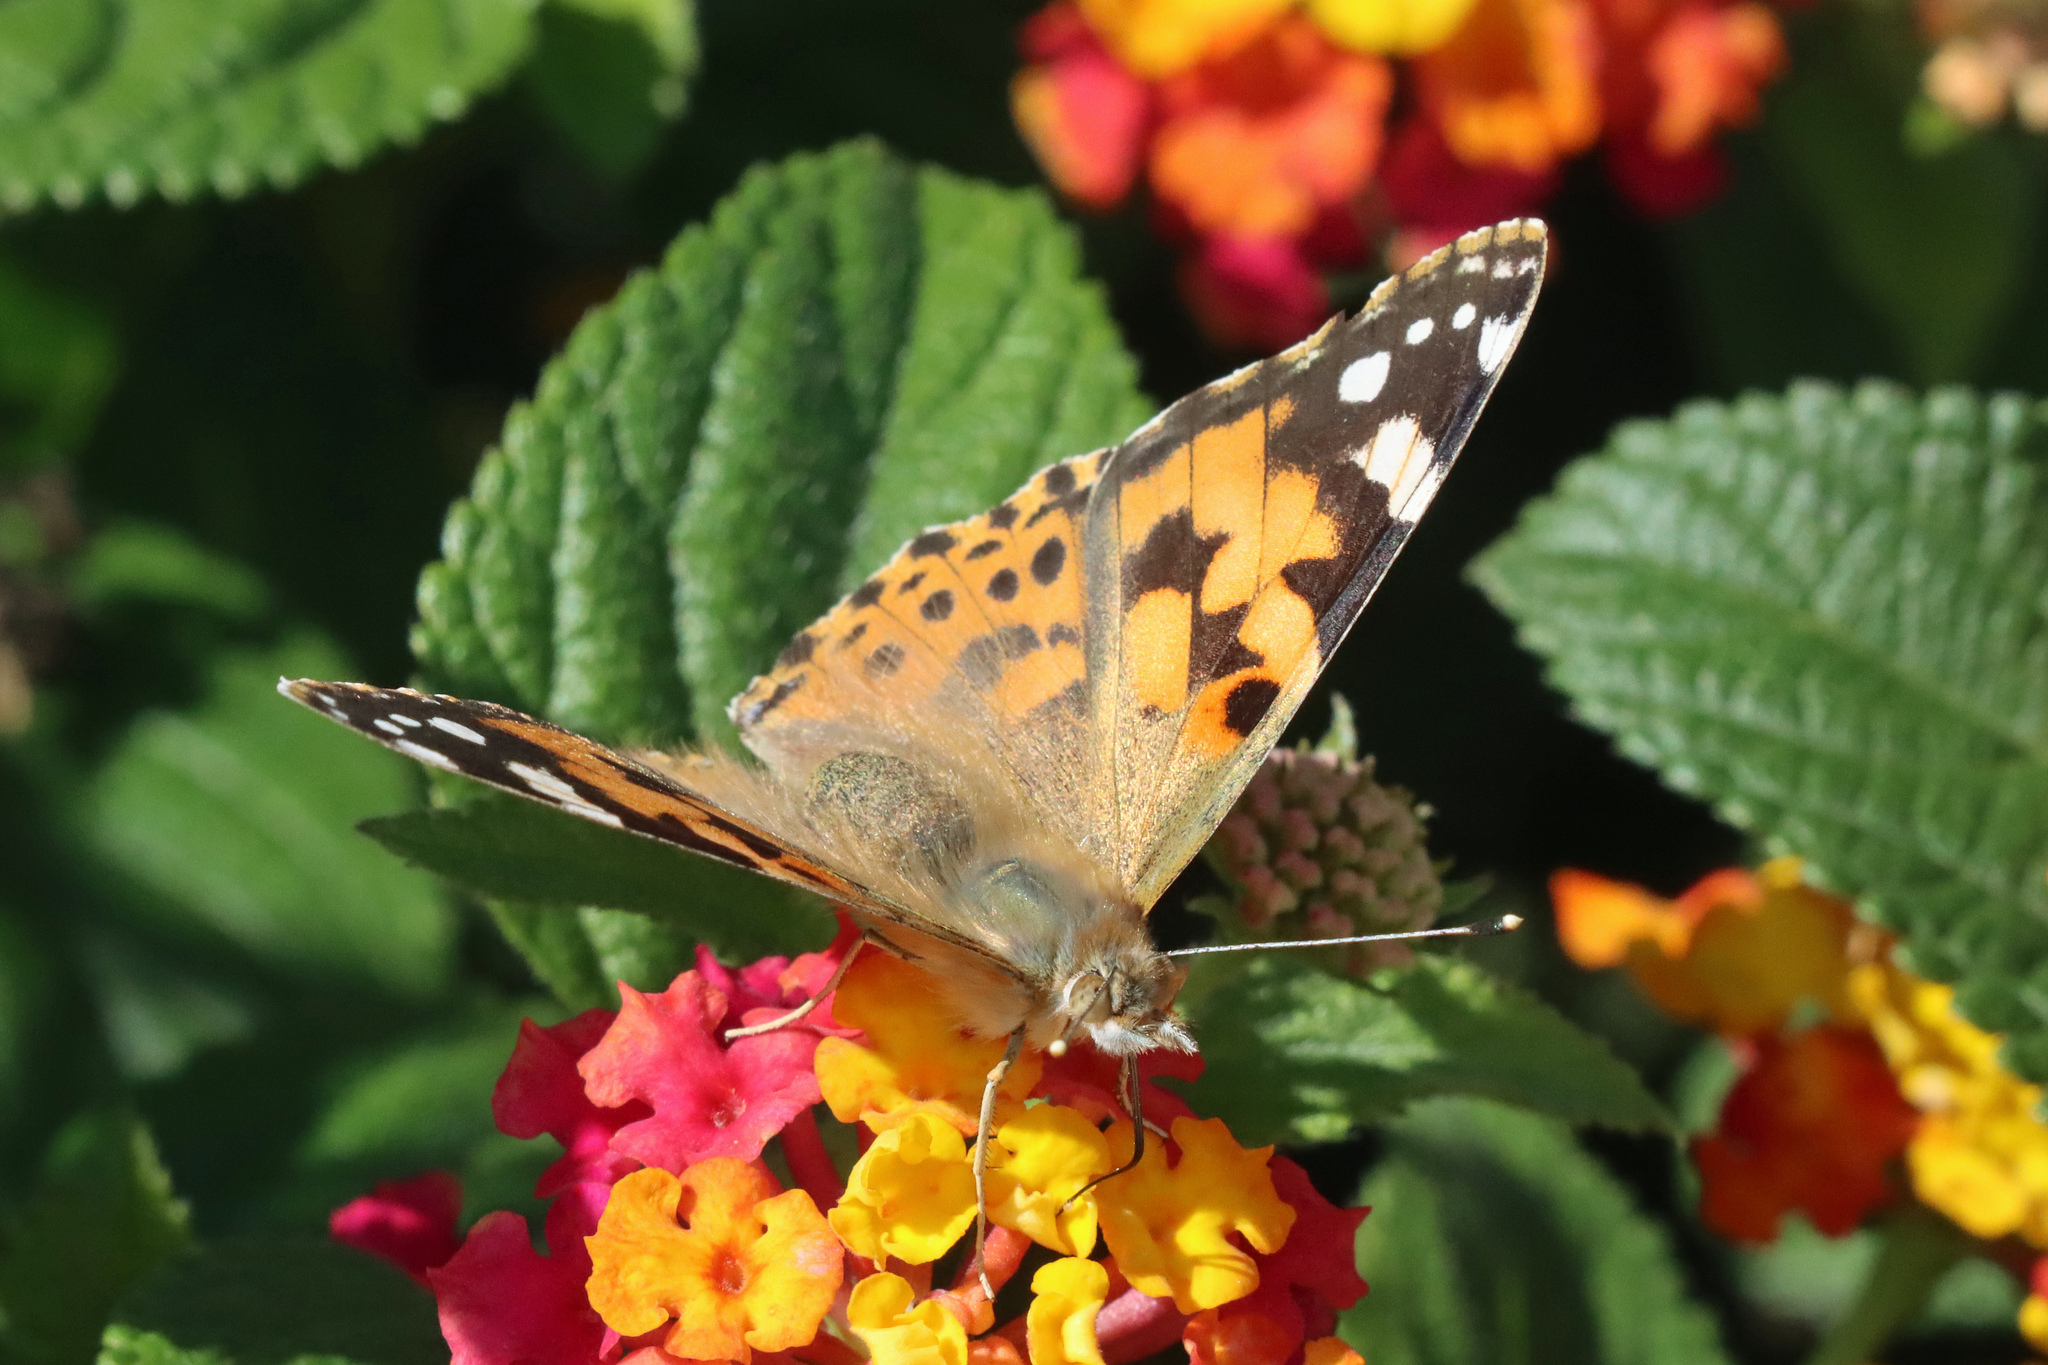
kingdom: Animalia
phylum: Arthropoda
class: Insecta
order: Lepidoptera
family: Nymphalidae
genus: Vanessa
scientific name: Vanessa cardui
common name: Painted lady
